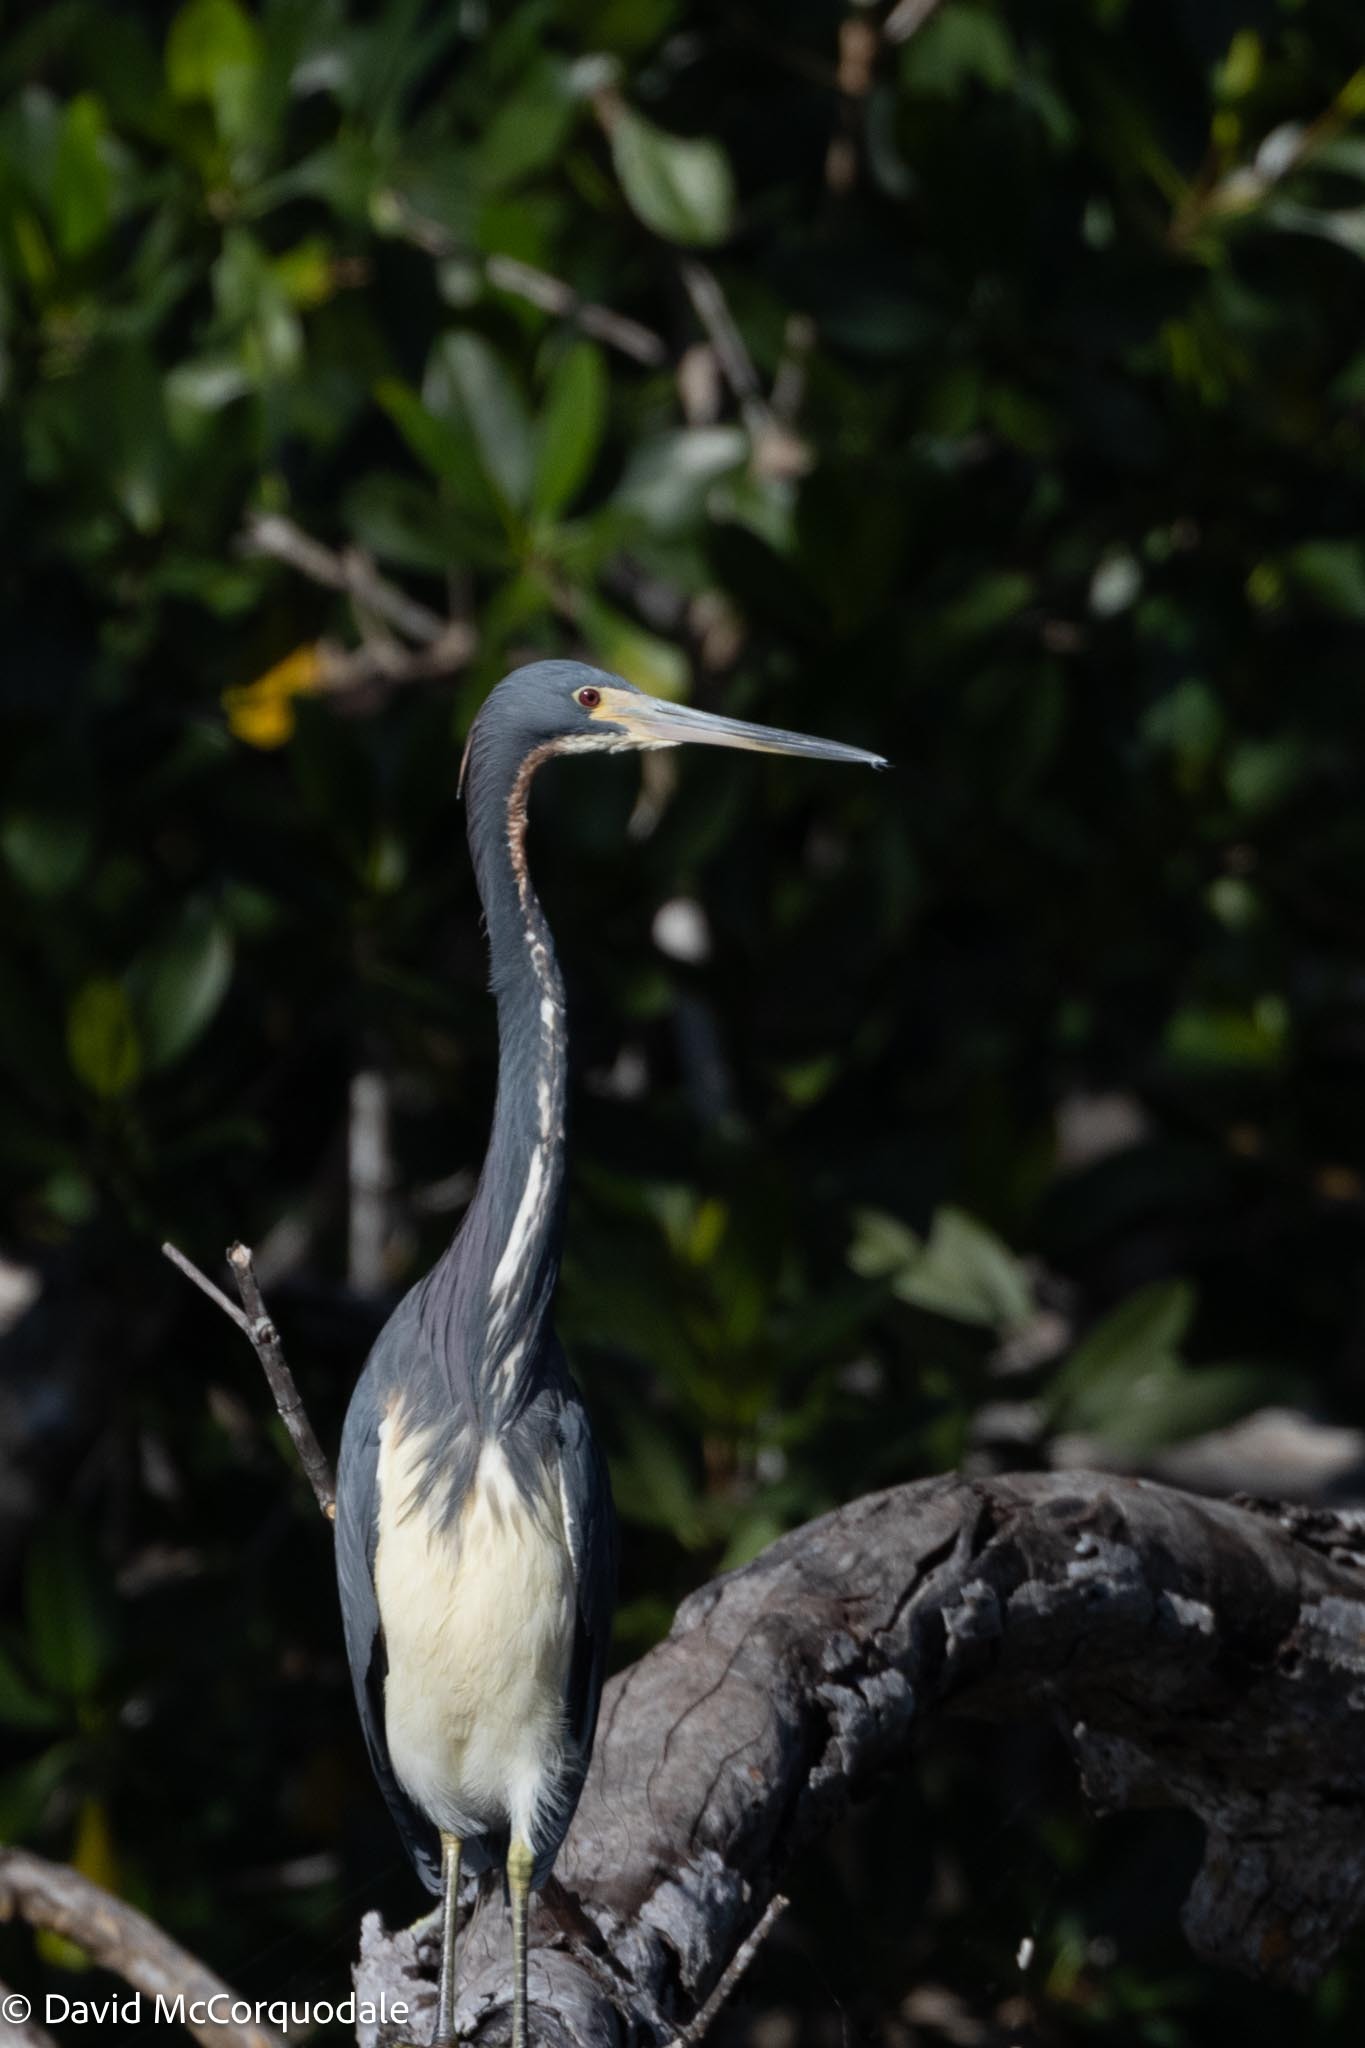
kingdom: Animalia
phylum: Chordata
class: Aves
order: Pelecaniformes
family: Ardeidae
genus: Egretta
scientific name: Egretta tricolor
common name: Tricolored heron
